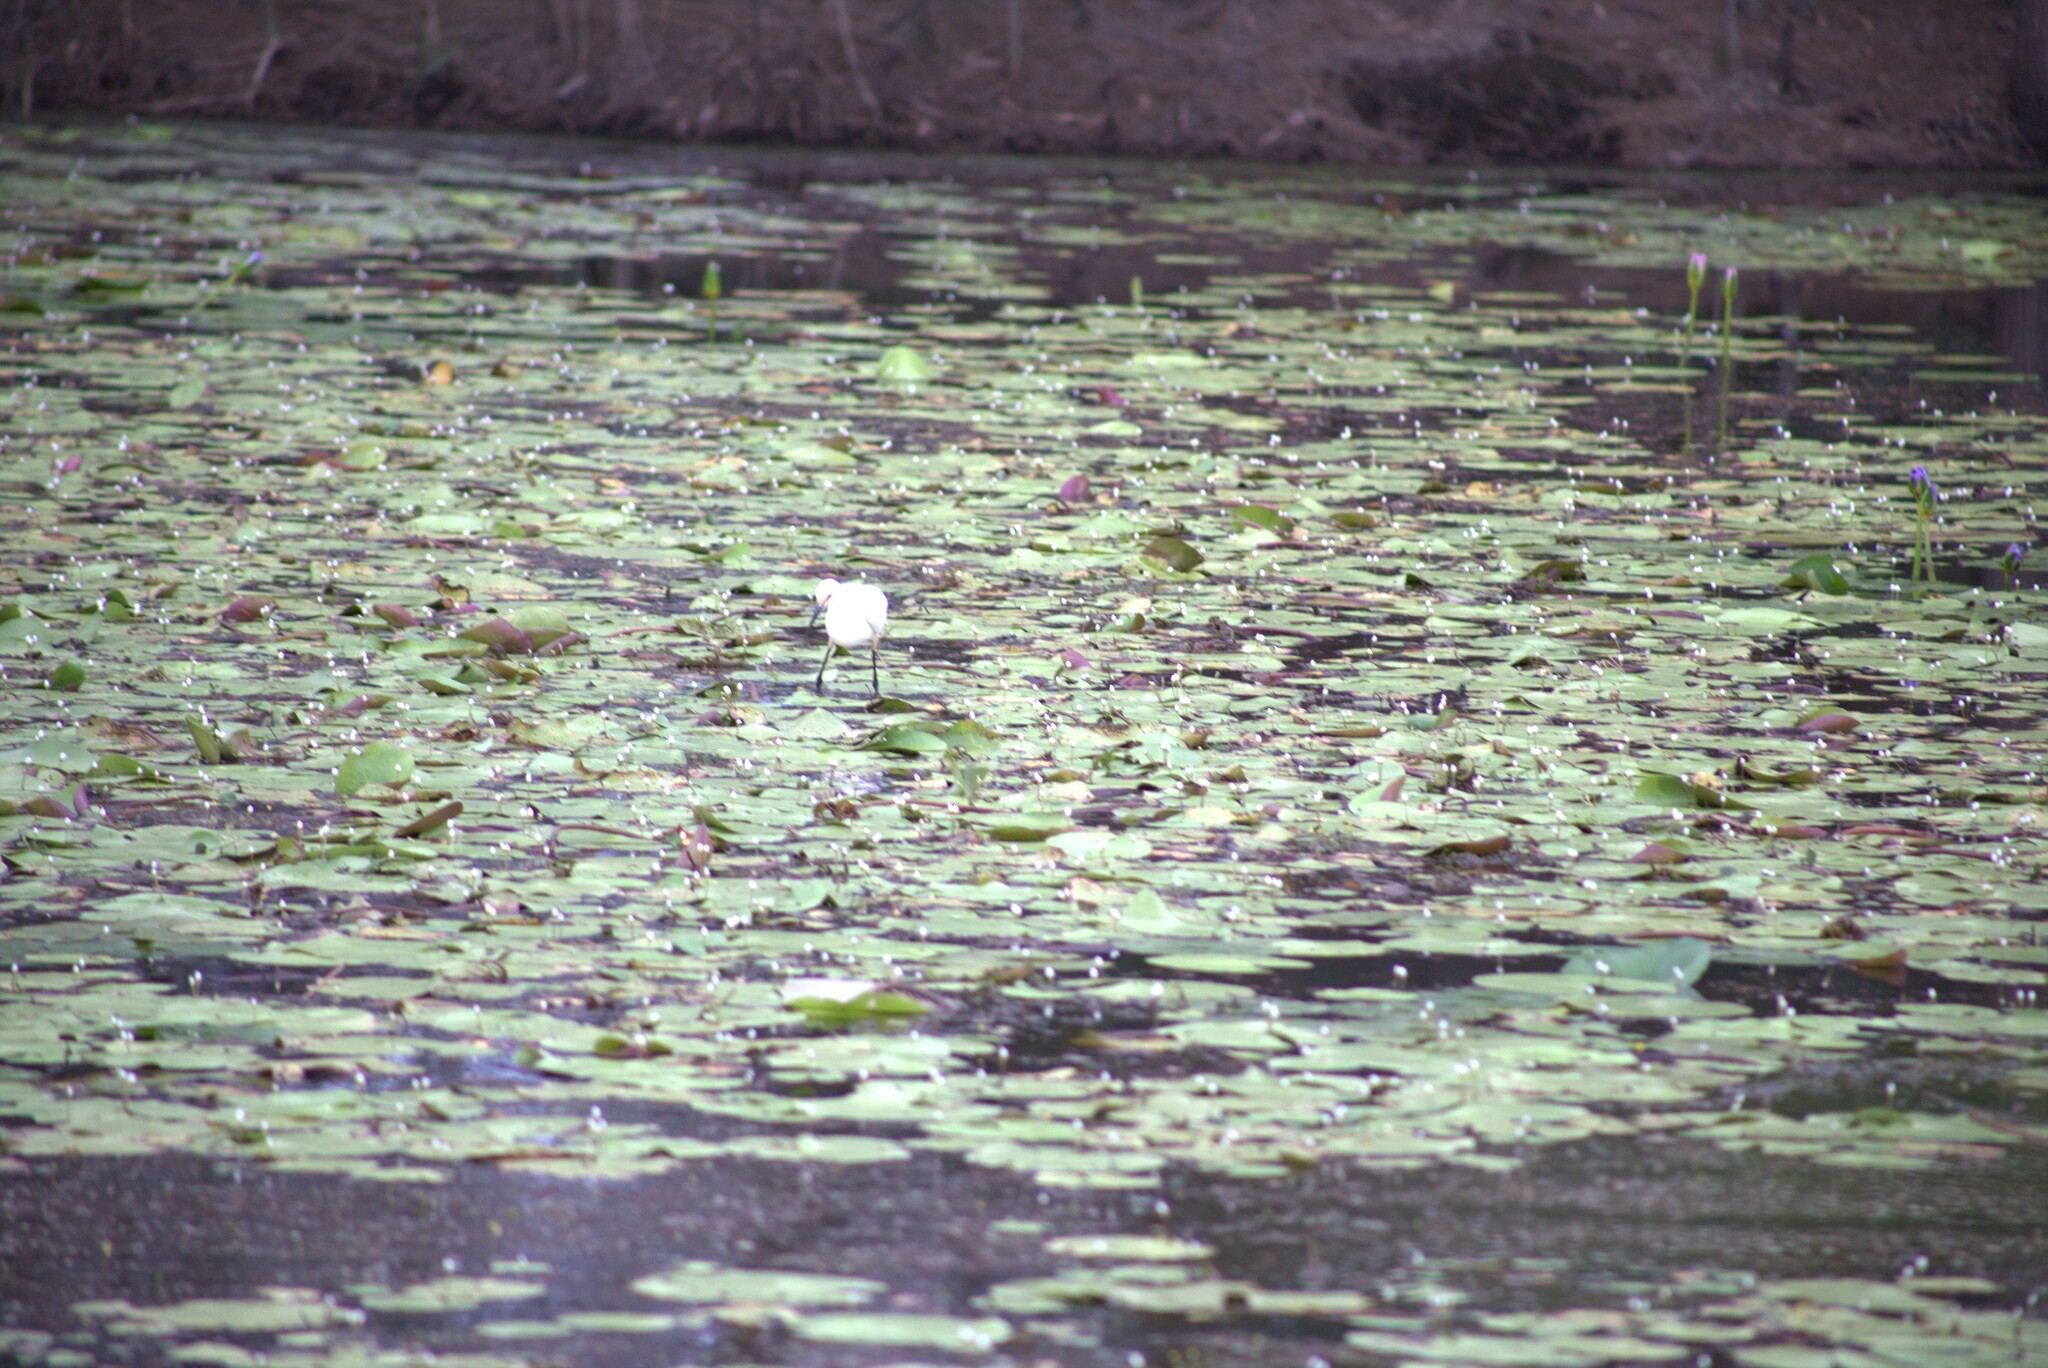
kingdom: Animalia
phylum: Chordata
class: Aves
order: Pelecaniformes
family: Ardeidae
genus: Egretta
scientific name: Egretta garzetta
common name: Little egret
